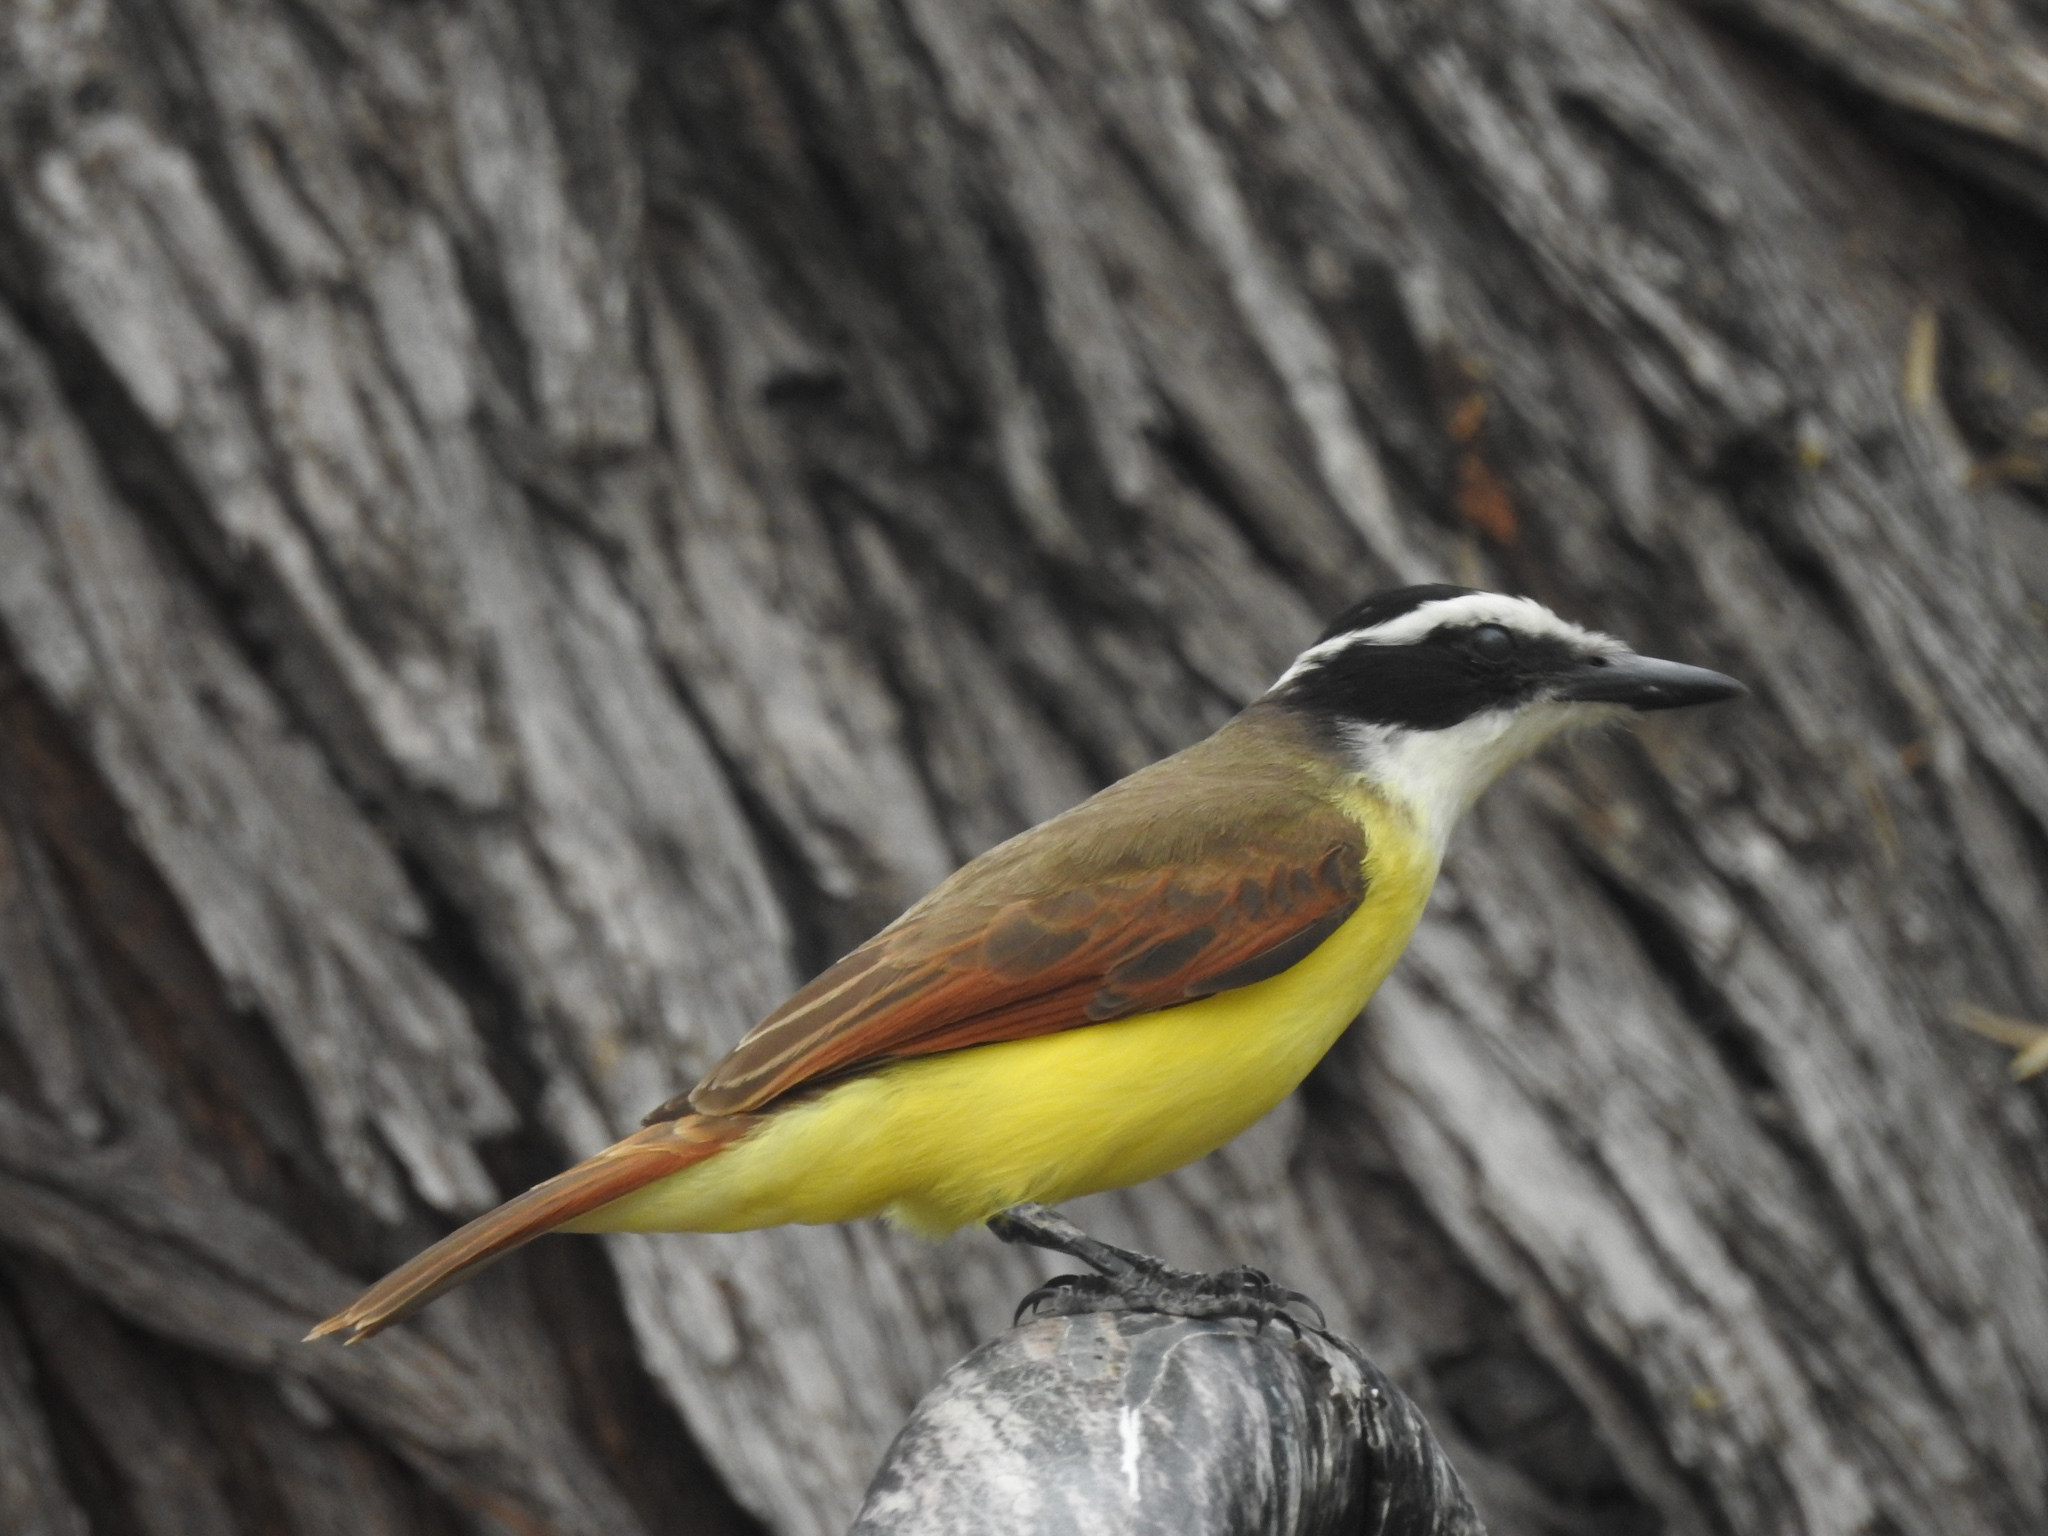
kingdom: Animalia
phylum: Chordata
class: Aves
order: Passeriformes
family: Tyrannidae
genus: Pitangus
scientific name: Pitangus sulphuratus
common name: Great kiskadee
